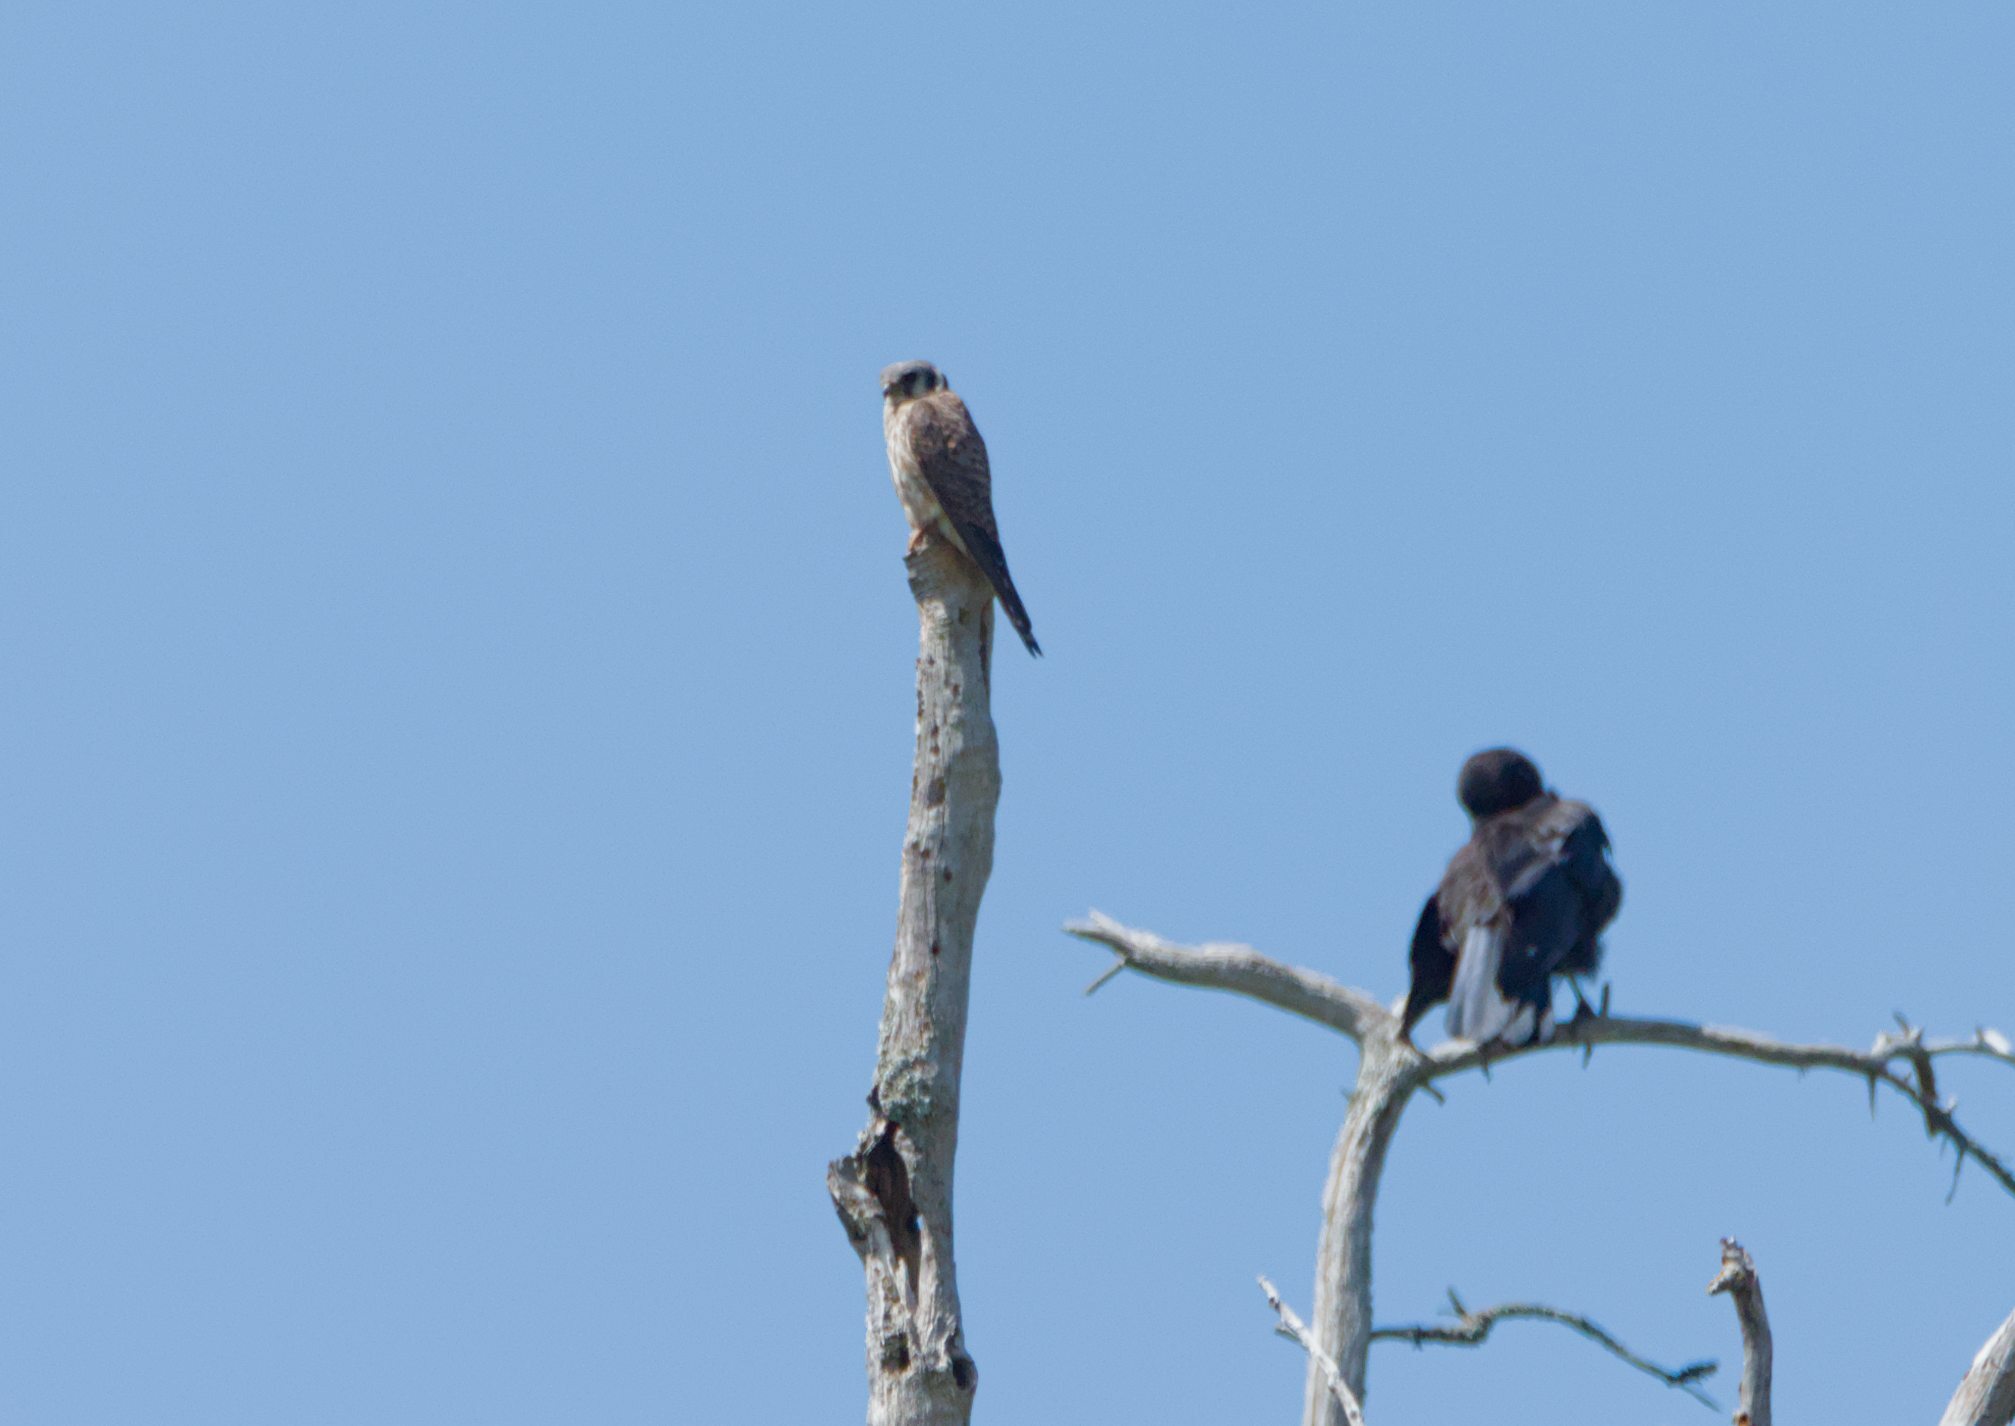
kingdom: Animalia
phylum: Chordata
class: Aves
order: Falconiformes
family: Falconidae
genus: Falco
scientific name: Falco sparverius
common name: American kestrel
